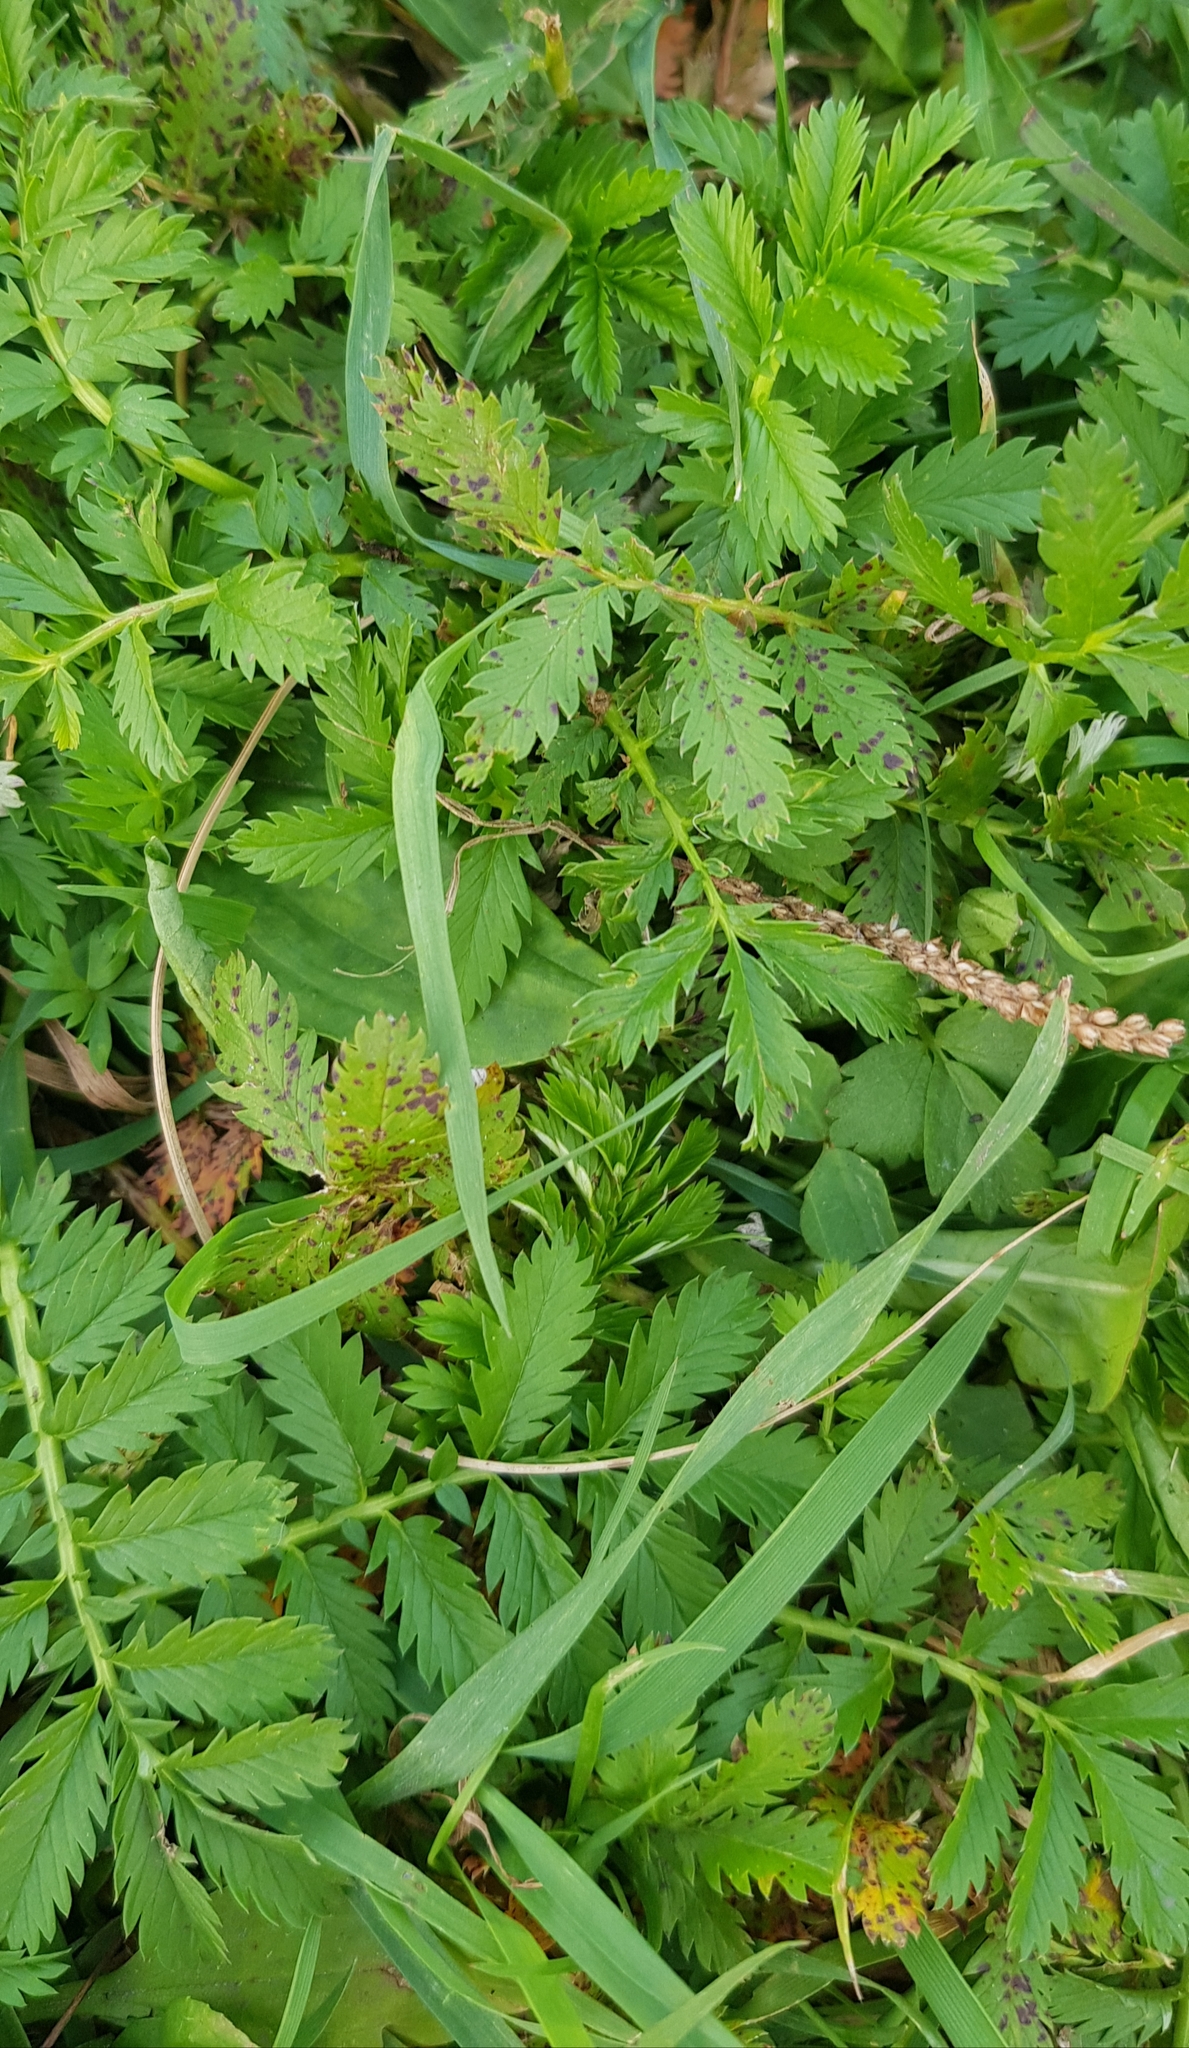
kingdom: Plantae
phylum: Tracheophyta
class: Magnoliopsida
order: Rosales
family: Rosaceae
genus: Argentina
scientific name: Argentina anserina
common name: Common silverweed
